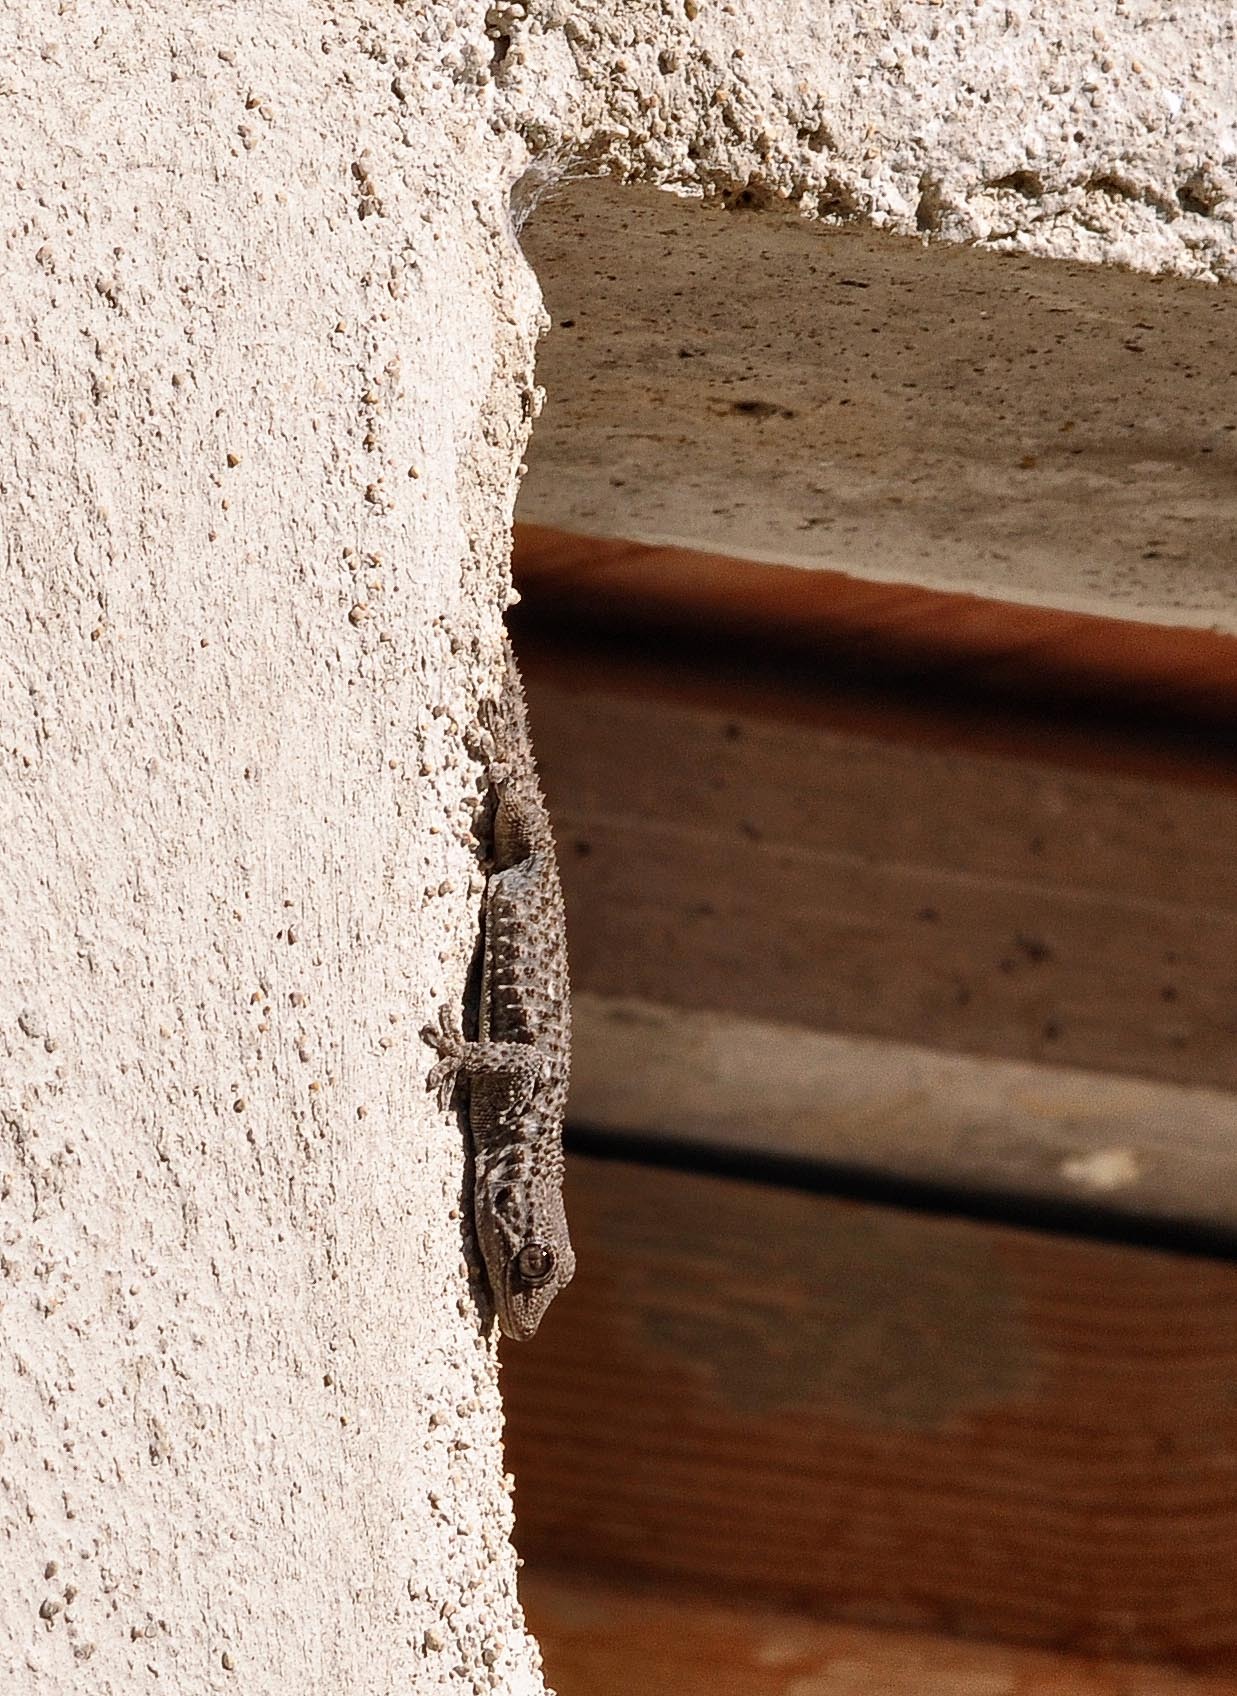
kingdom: Animalia
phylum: Chordata
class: Squamata
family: Phyllodactylidae
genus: Tarentola
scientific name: Tarentola mauritanica
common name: Moorish gecko
